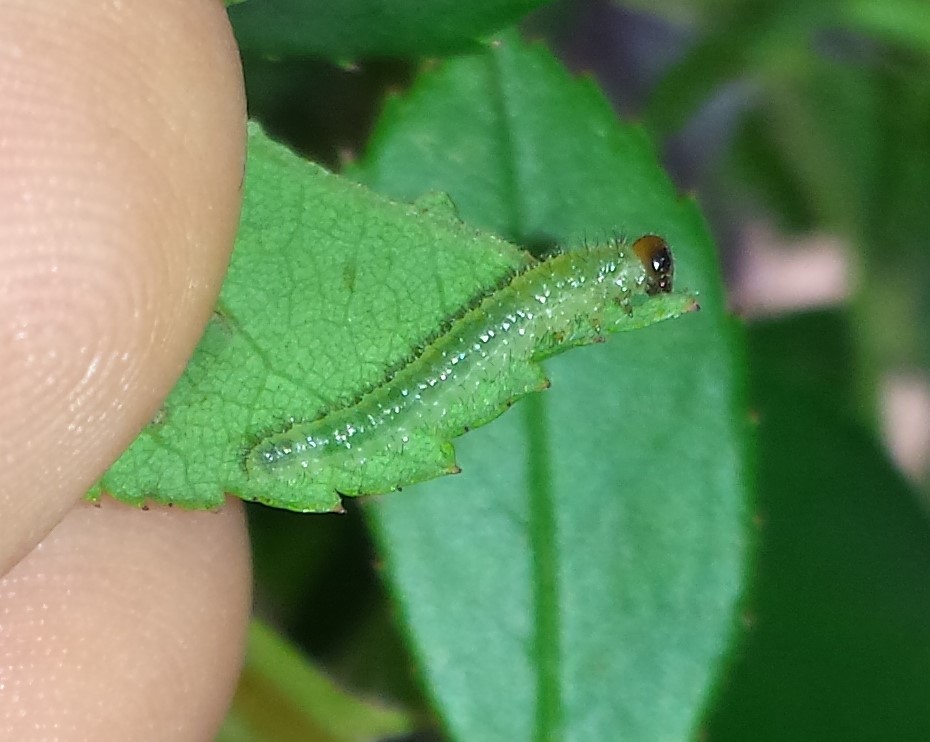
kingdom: Animalia
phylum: Arthropoda
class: Insecta
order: Hymenoptera
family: Tenthredinidae
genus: Cladius
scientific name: Cladius pectinicornis
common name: Sawfly
